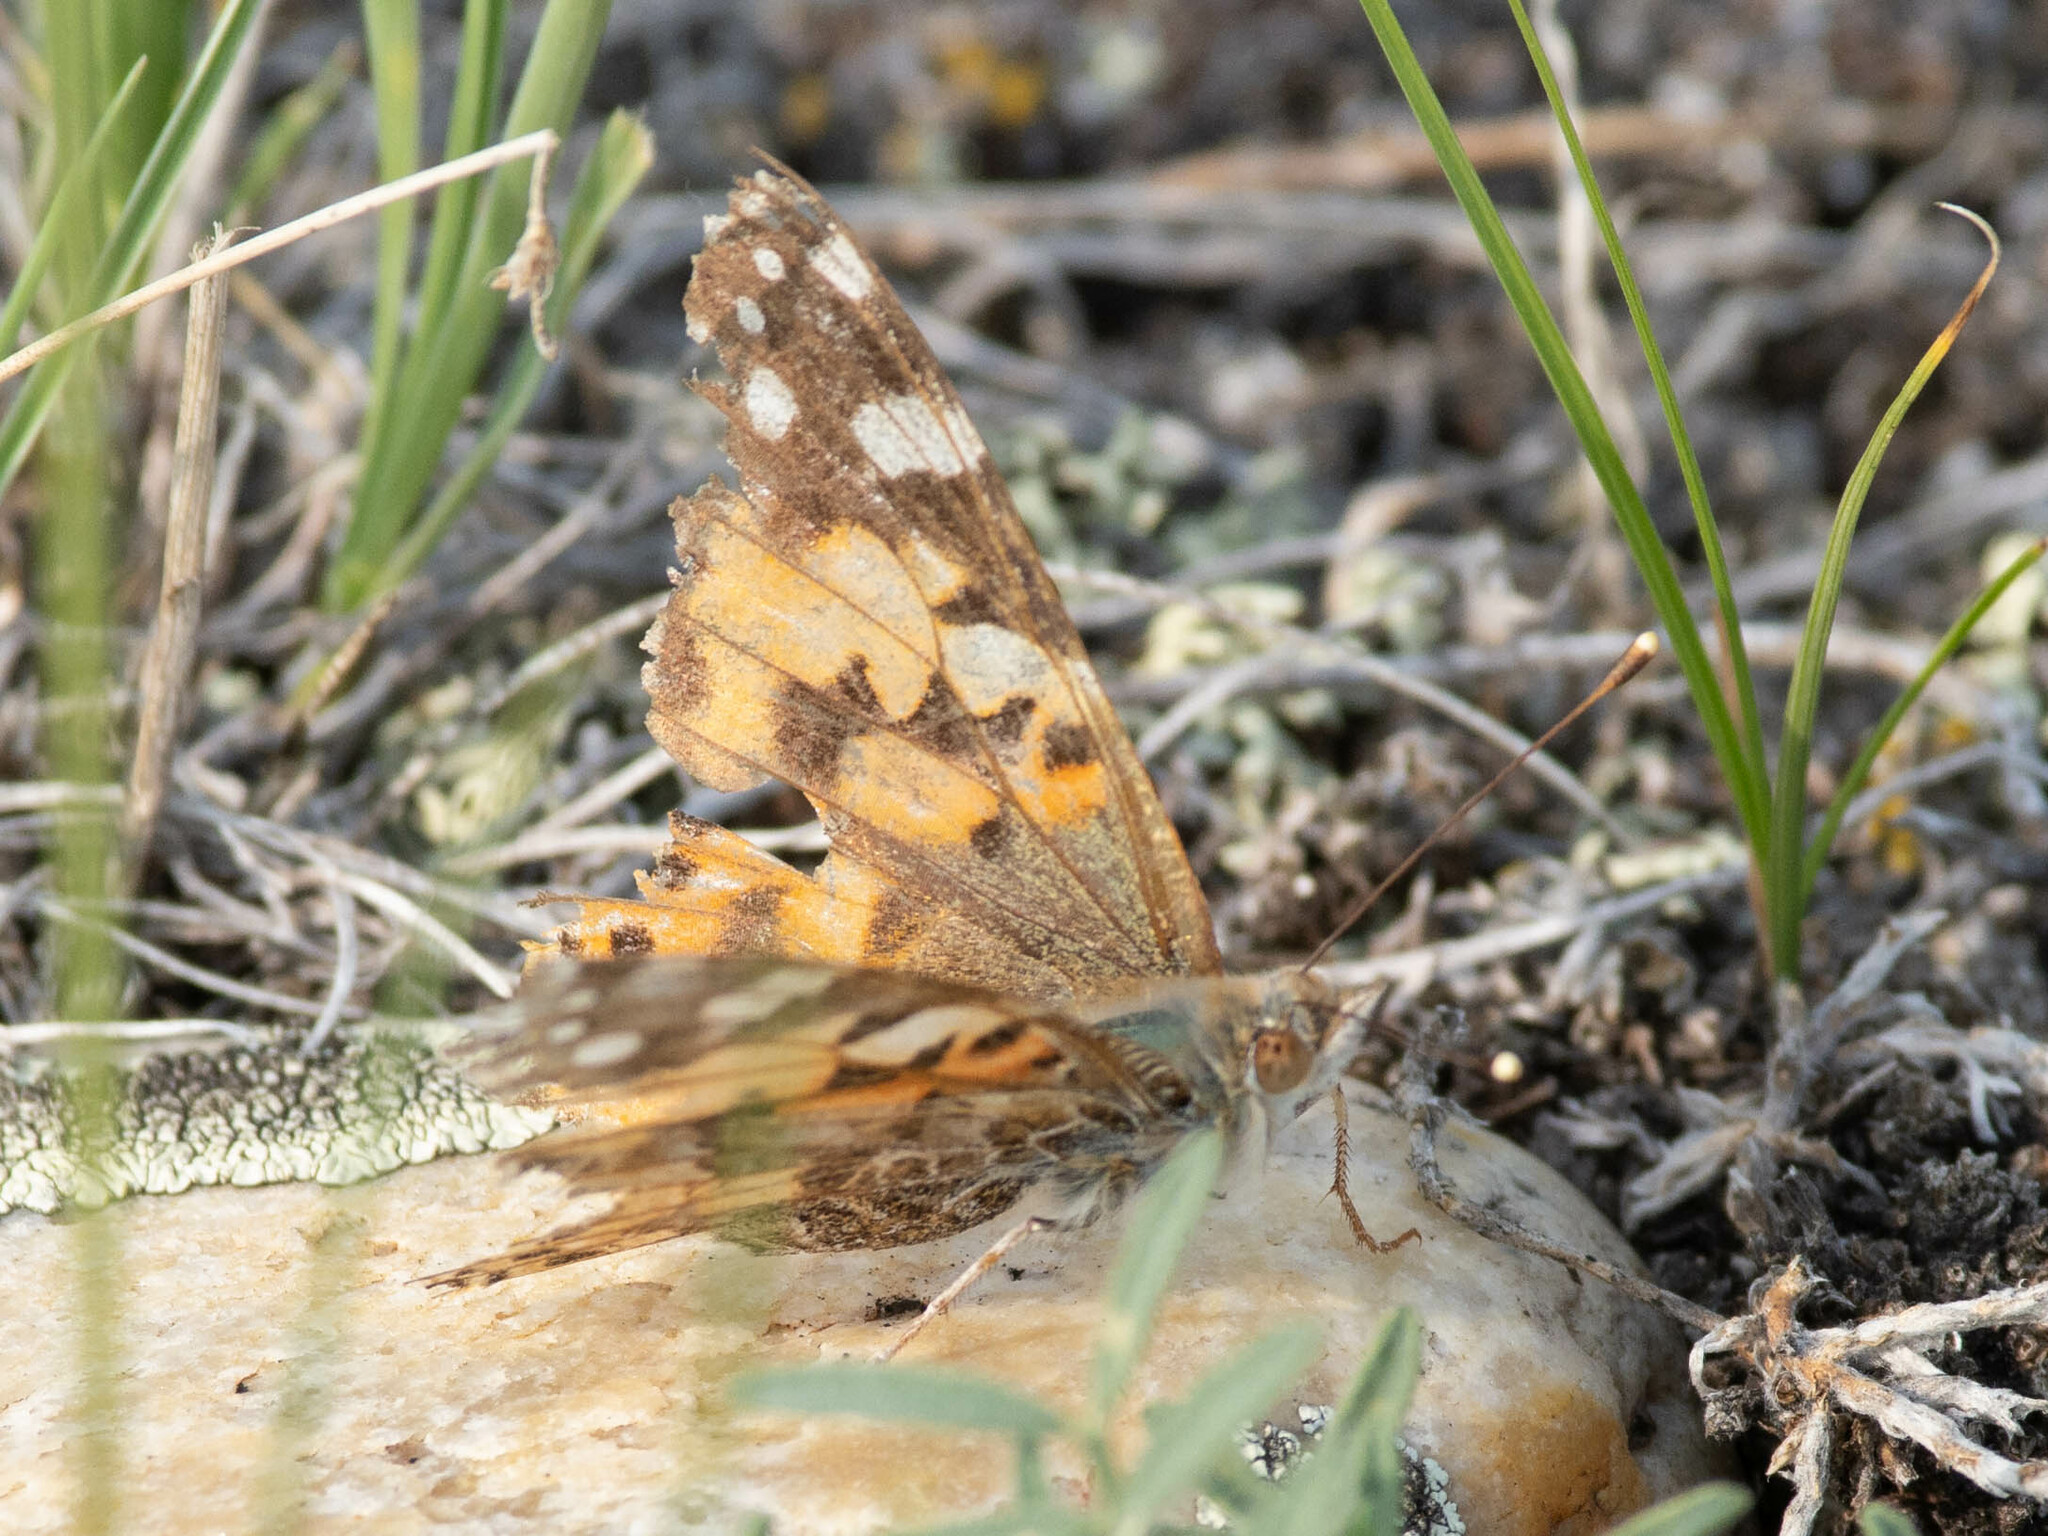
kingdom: Animalia
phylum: Arthropoda
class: Insecta
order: Lepidoptera
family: Nymphalidae
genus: Vanessa
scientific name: Vanessa cardui
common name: Painted lady
